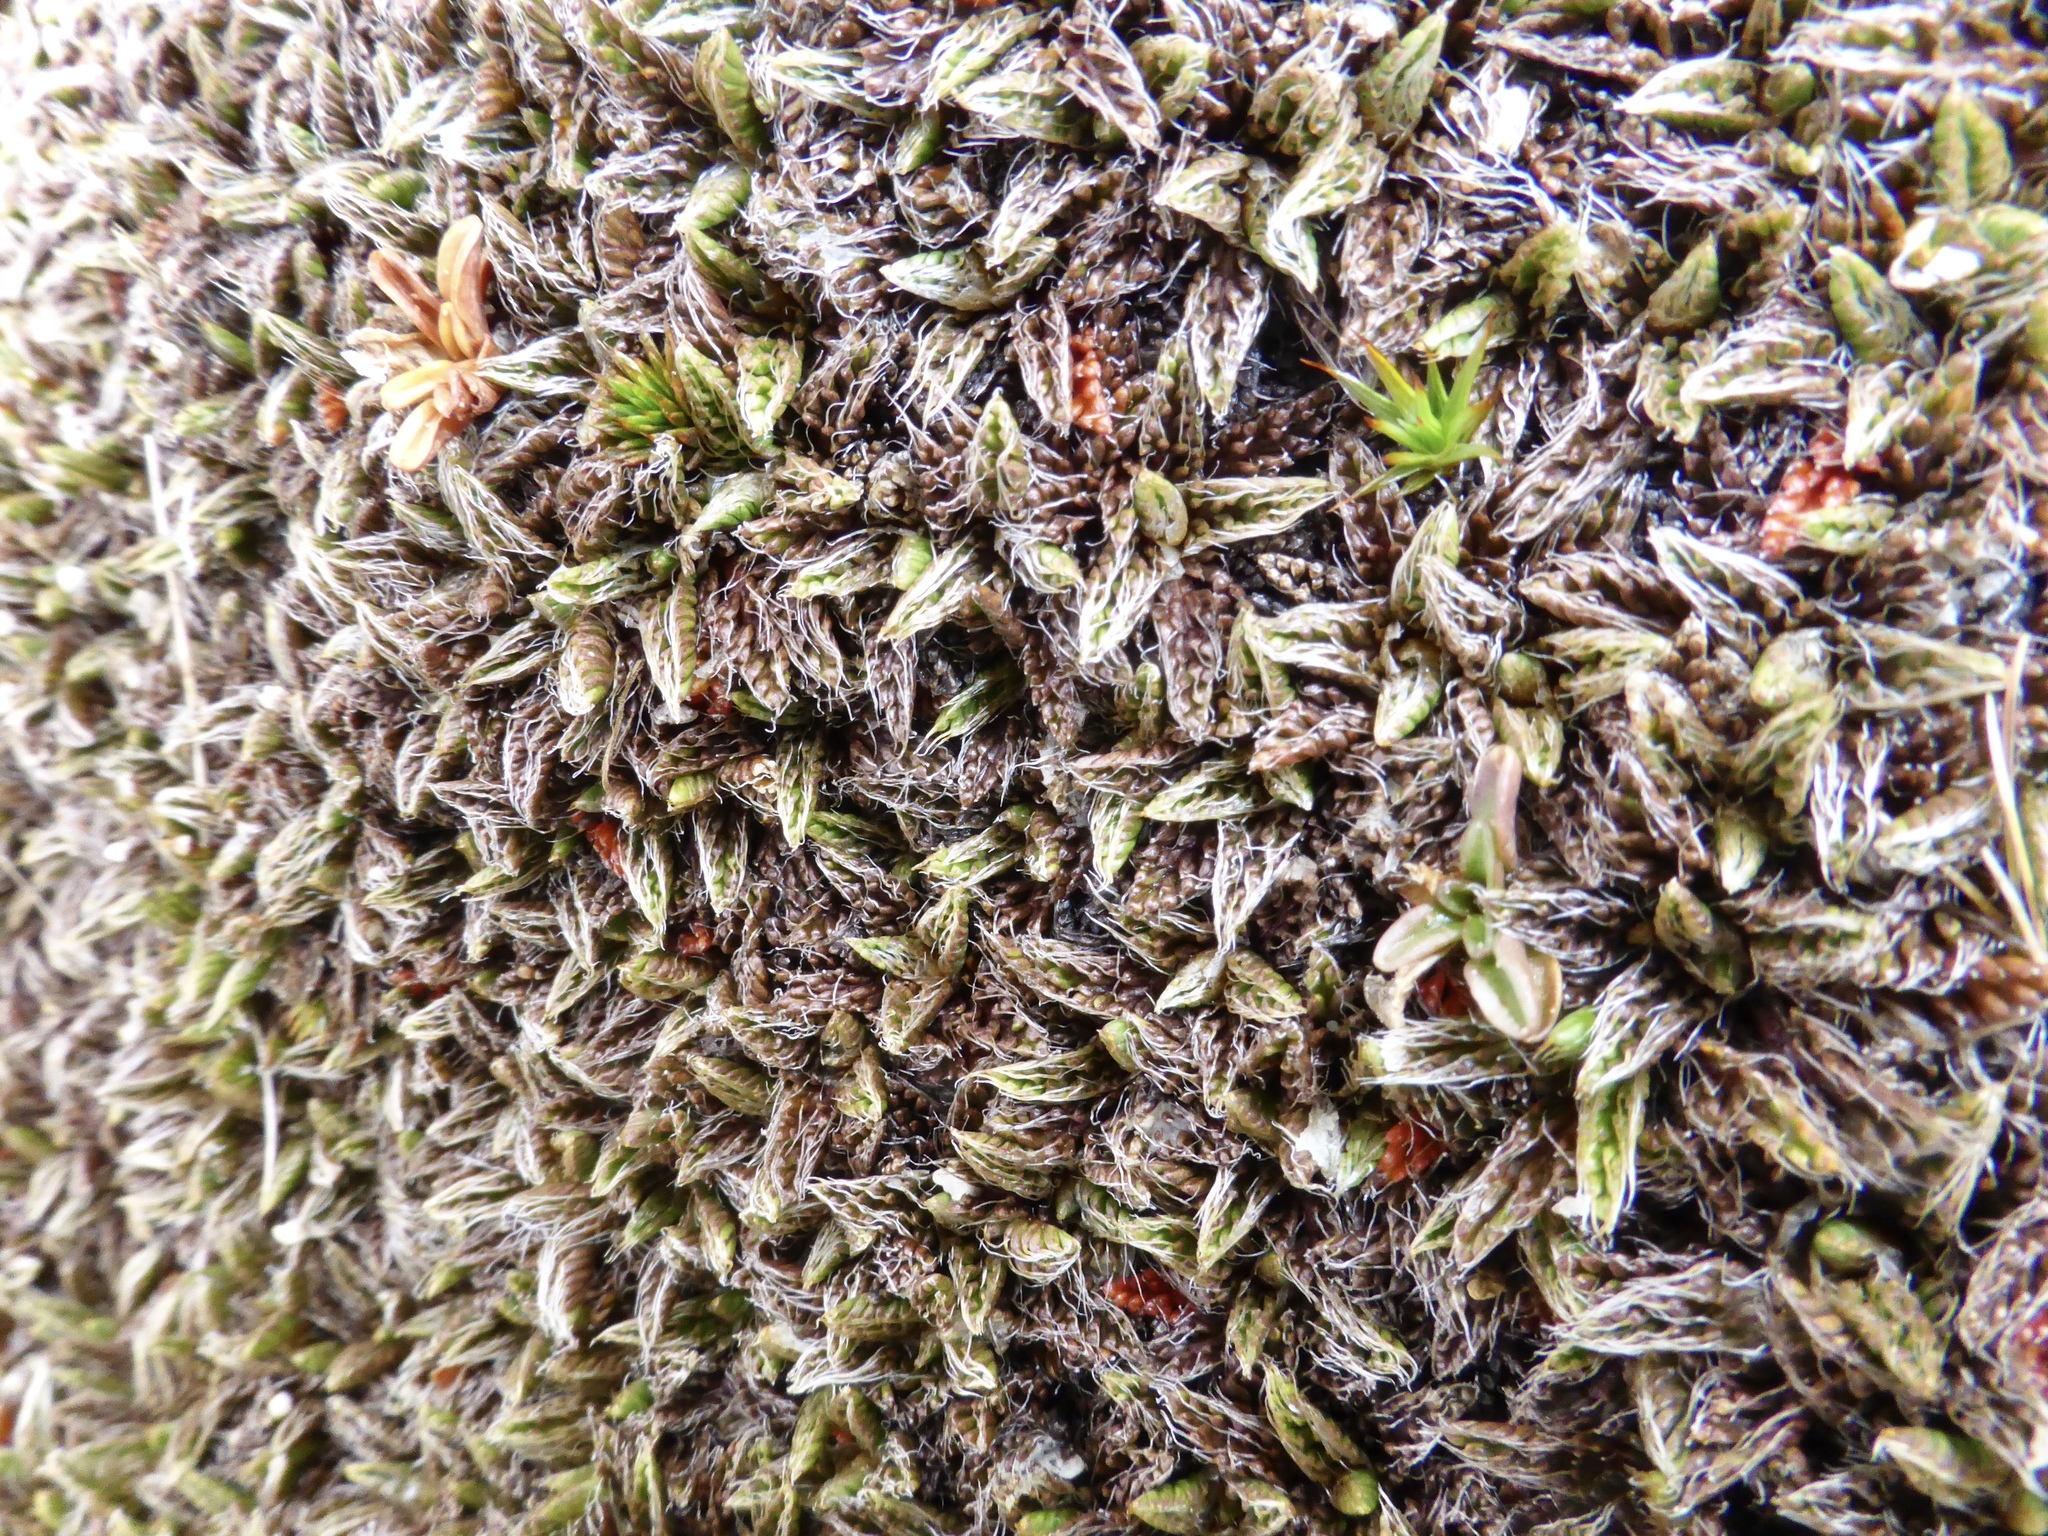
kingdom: Plantae
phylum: Tracheophyta
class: Magnoliopsida
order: Apiales
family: Apiaceae
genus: Anisotome
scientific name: Anisotome imbricata
